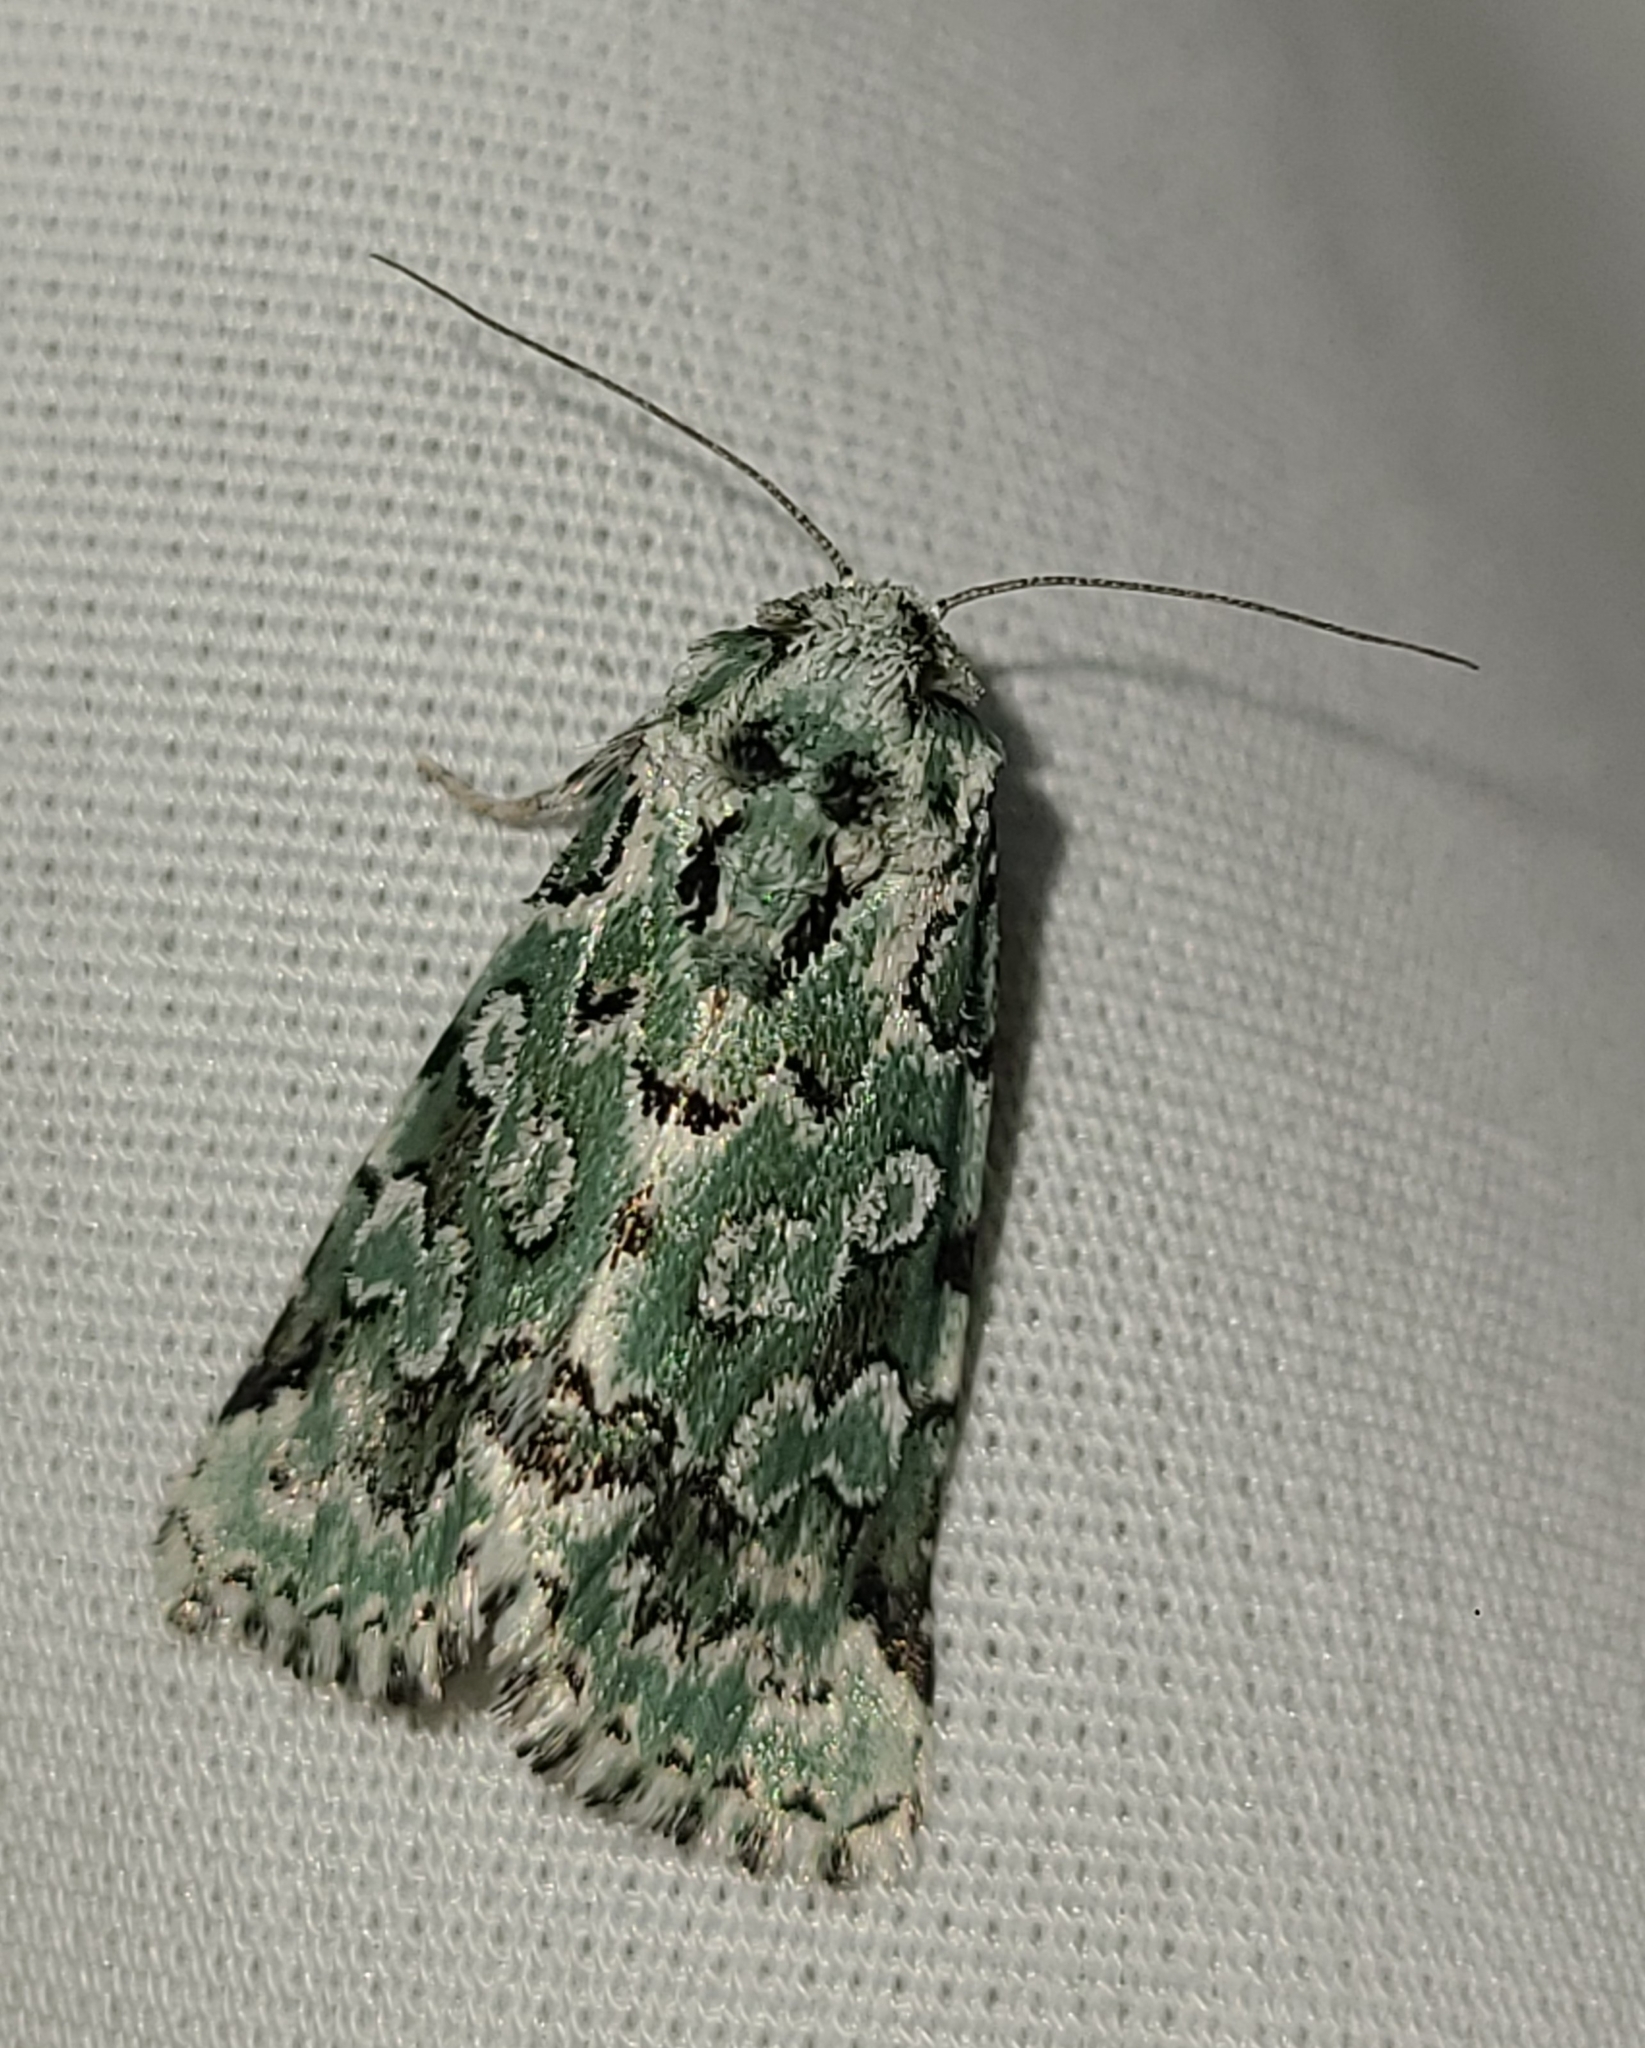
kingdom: Animalia
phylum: Arthropoda
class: Insecta
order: Lepidoptera
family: Noctuidae
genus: Bryolymnia
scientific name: Bryolymnia viridata
